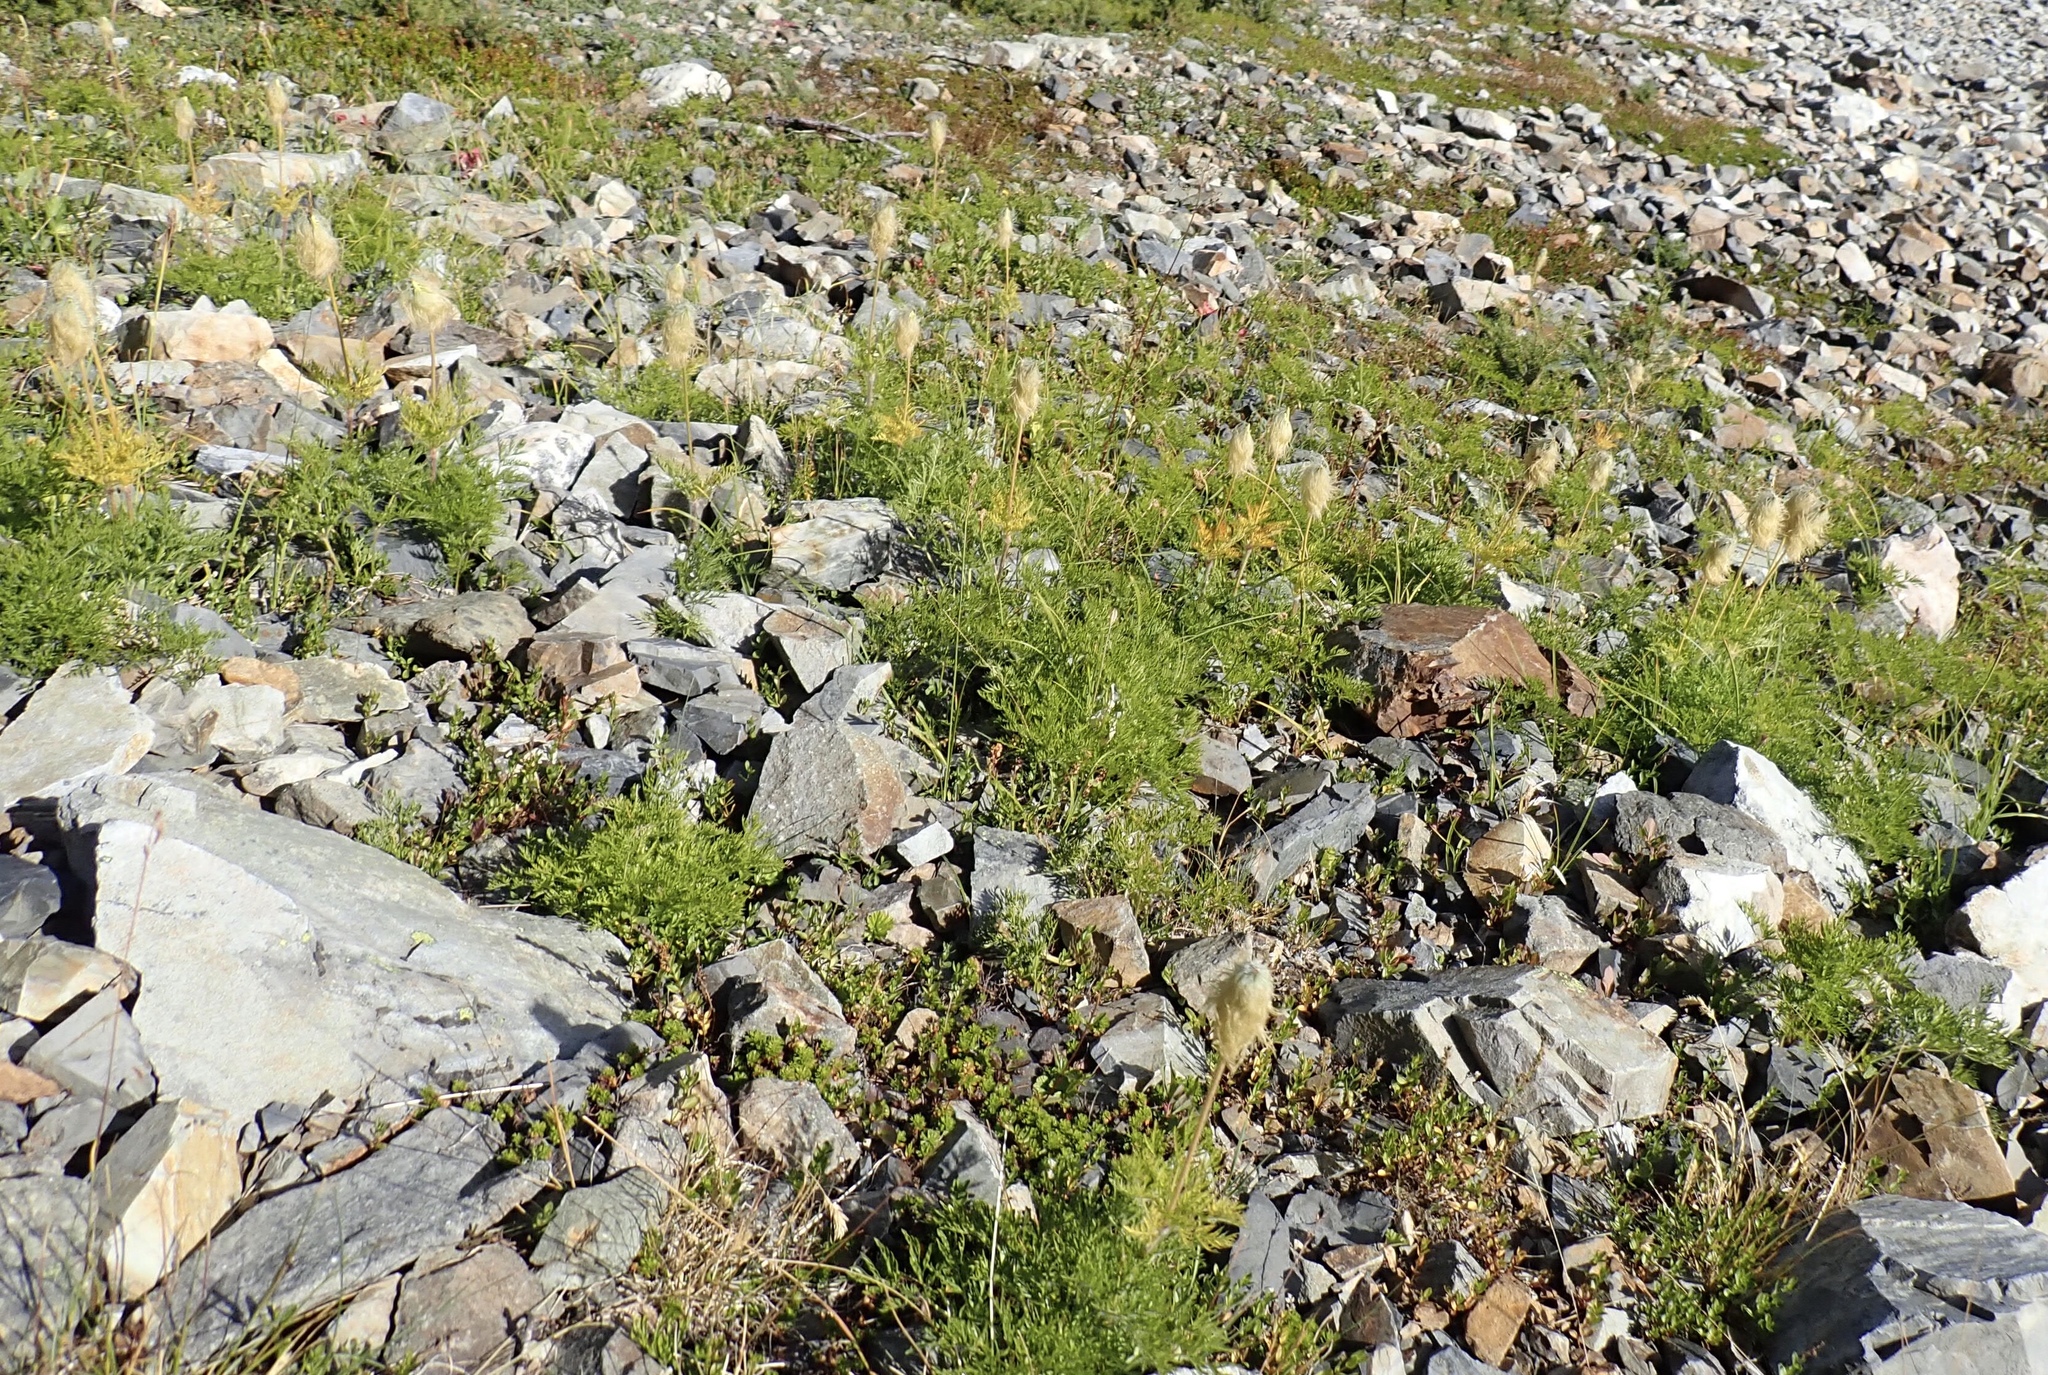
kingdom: Plantae
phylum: Tracheophyta
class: Magnoliopsida
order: Ranunculales
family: Ranunculaceae
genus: Pulsatilla
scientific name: Pulsatilla occidentalis
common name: Mountain pasqueflower
